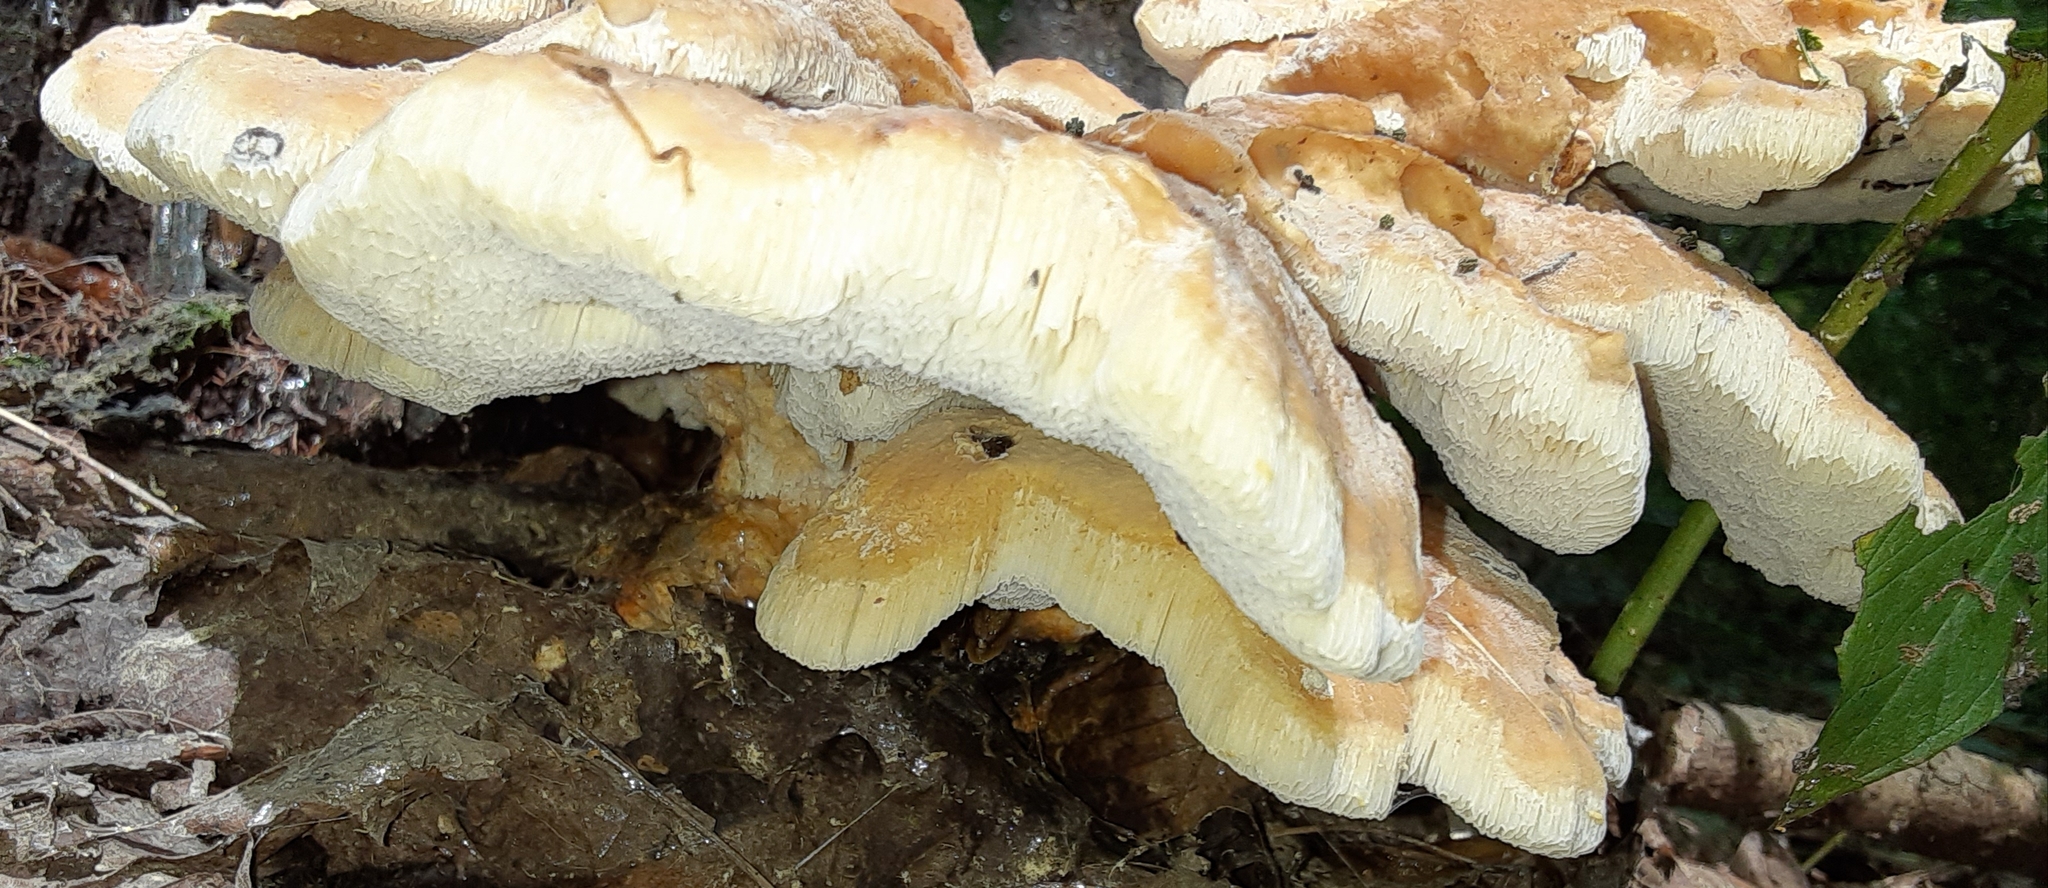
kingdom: Fungi
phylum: Basidiomycota
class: Agaricomycetes
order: Russulales
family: Bondarzewiaceae
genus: Bondarzewia
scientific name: Bondarzewia berkeleyi
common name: Berkeley's polypore
